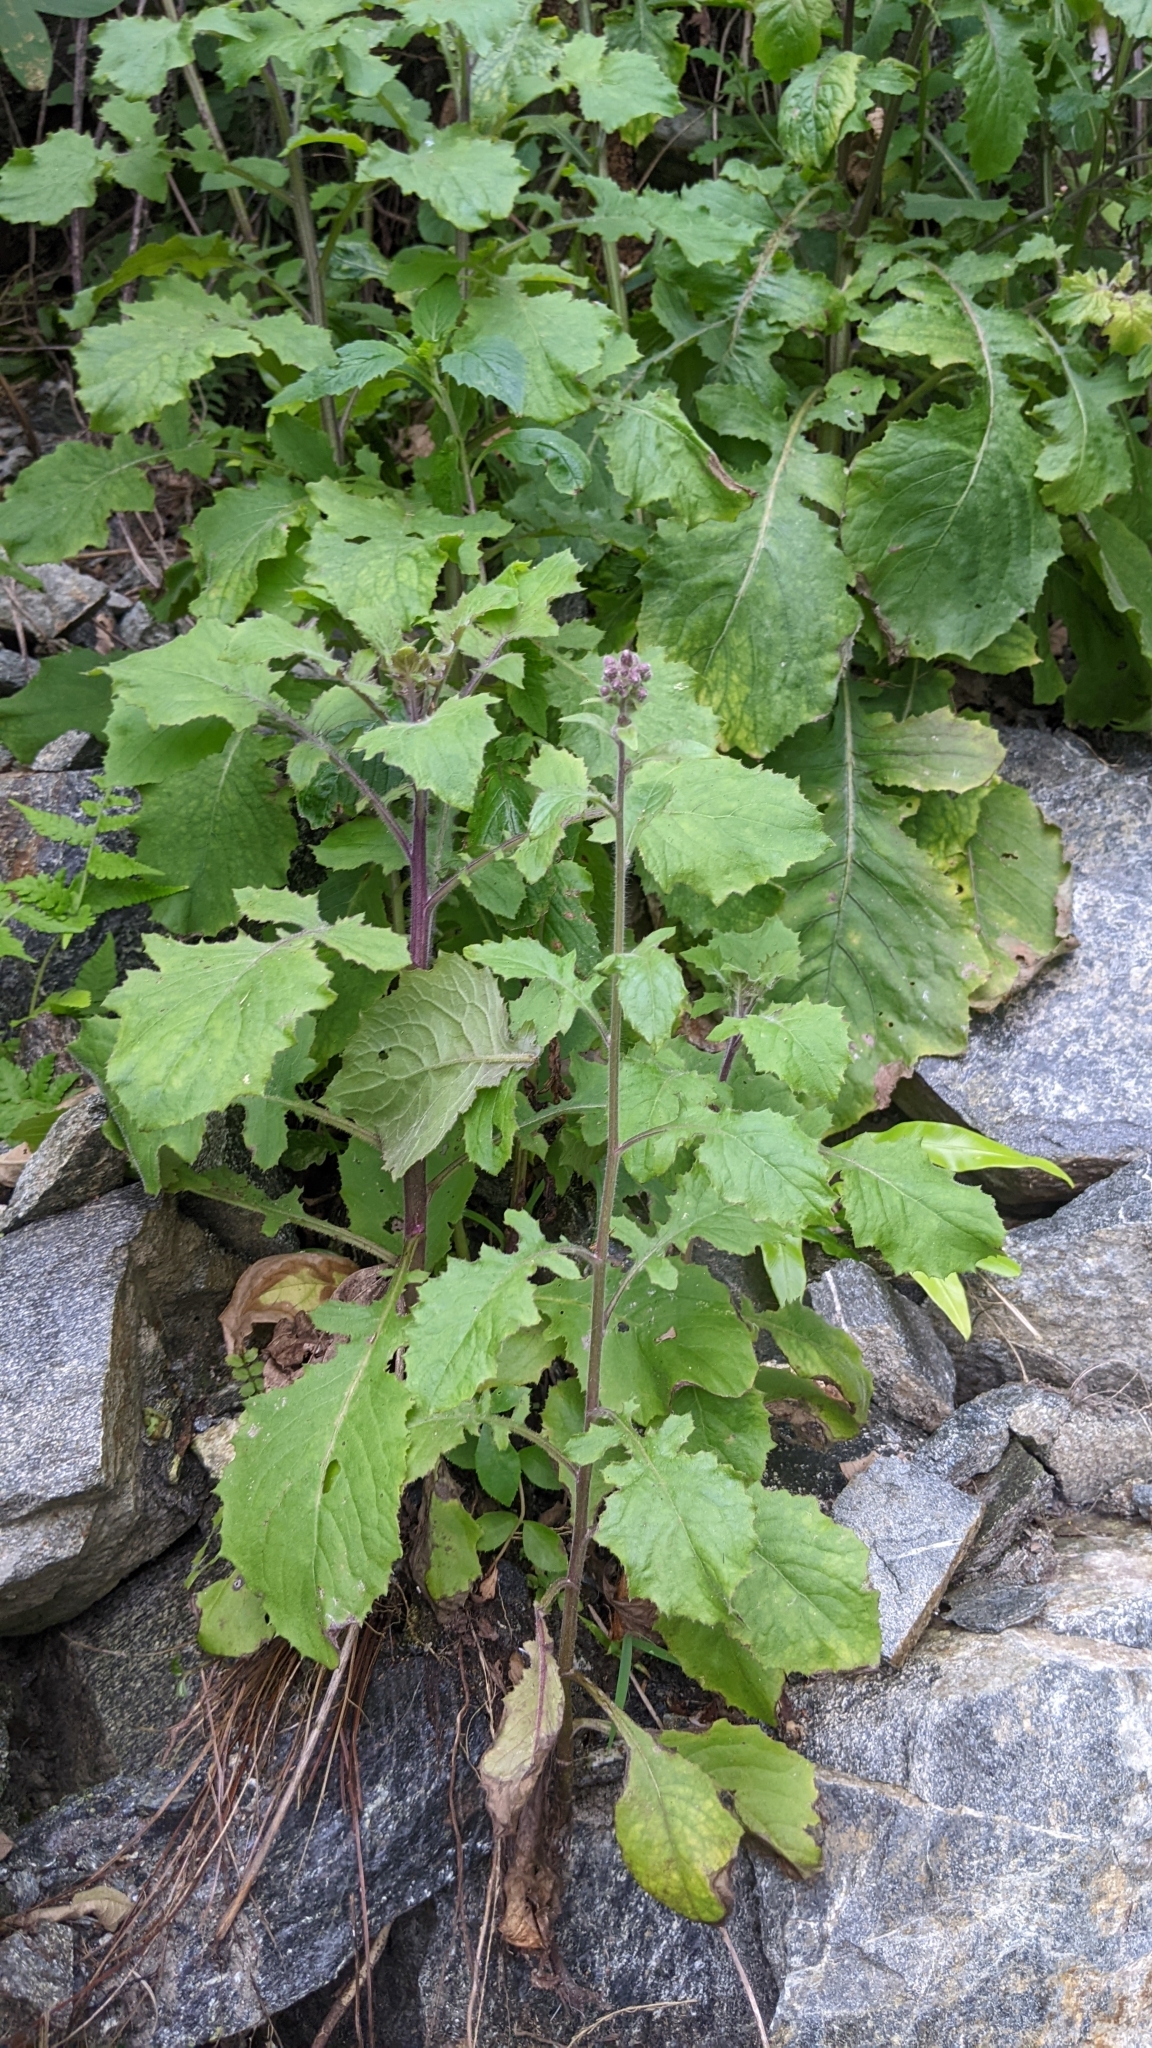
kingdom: Plantae
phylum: Tracheophyta
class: Magnoliopsida
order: Asterales
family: Asteraceae
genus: Blumea
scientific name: Blumea sinuata
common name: Cutleaf false oxtongue
